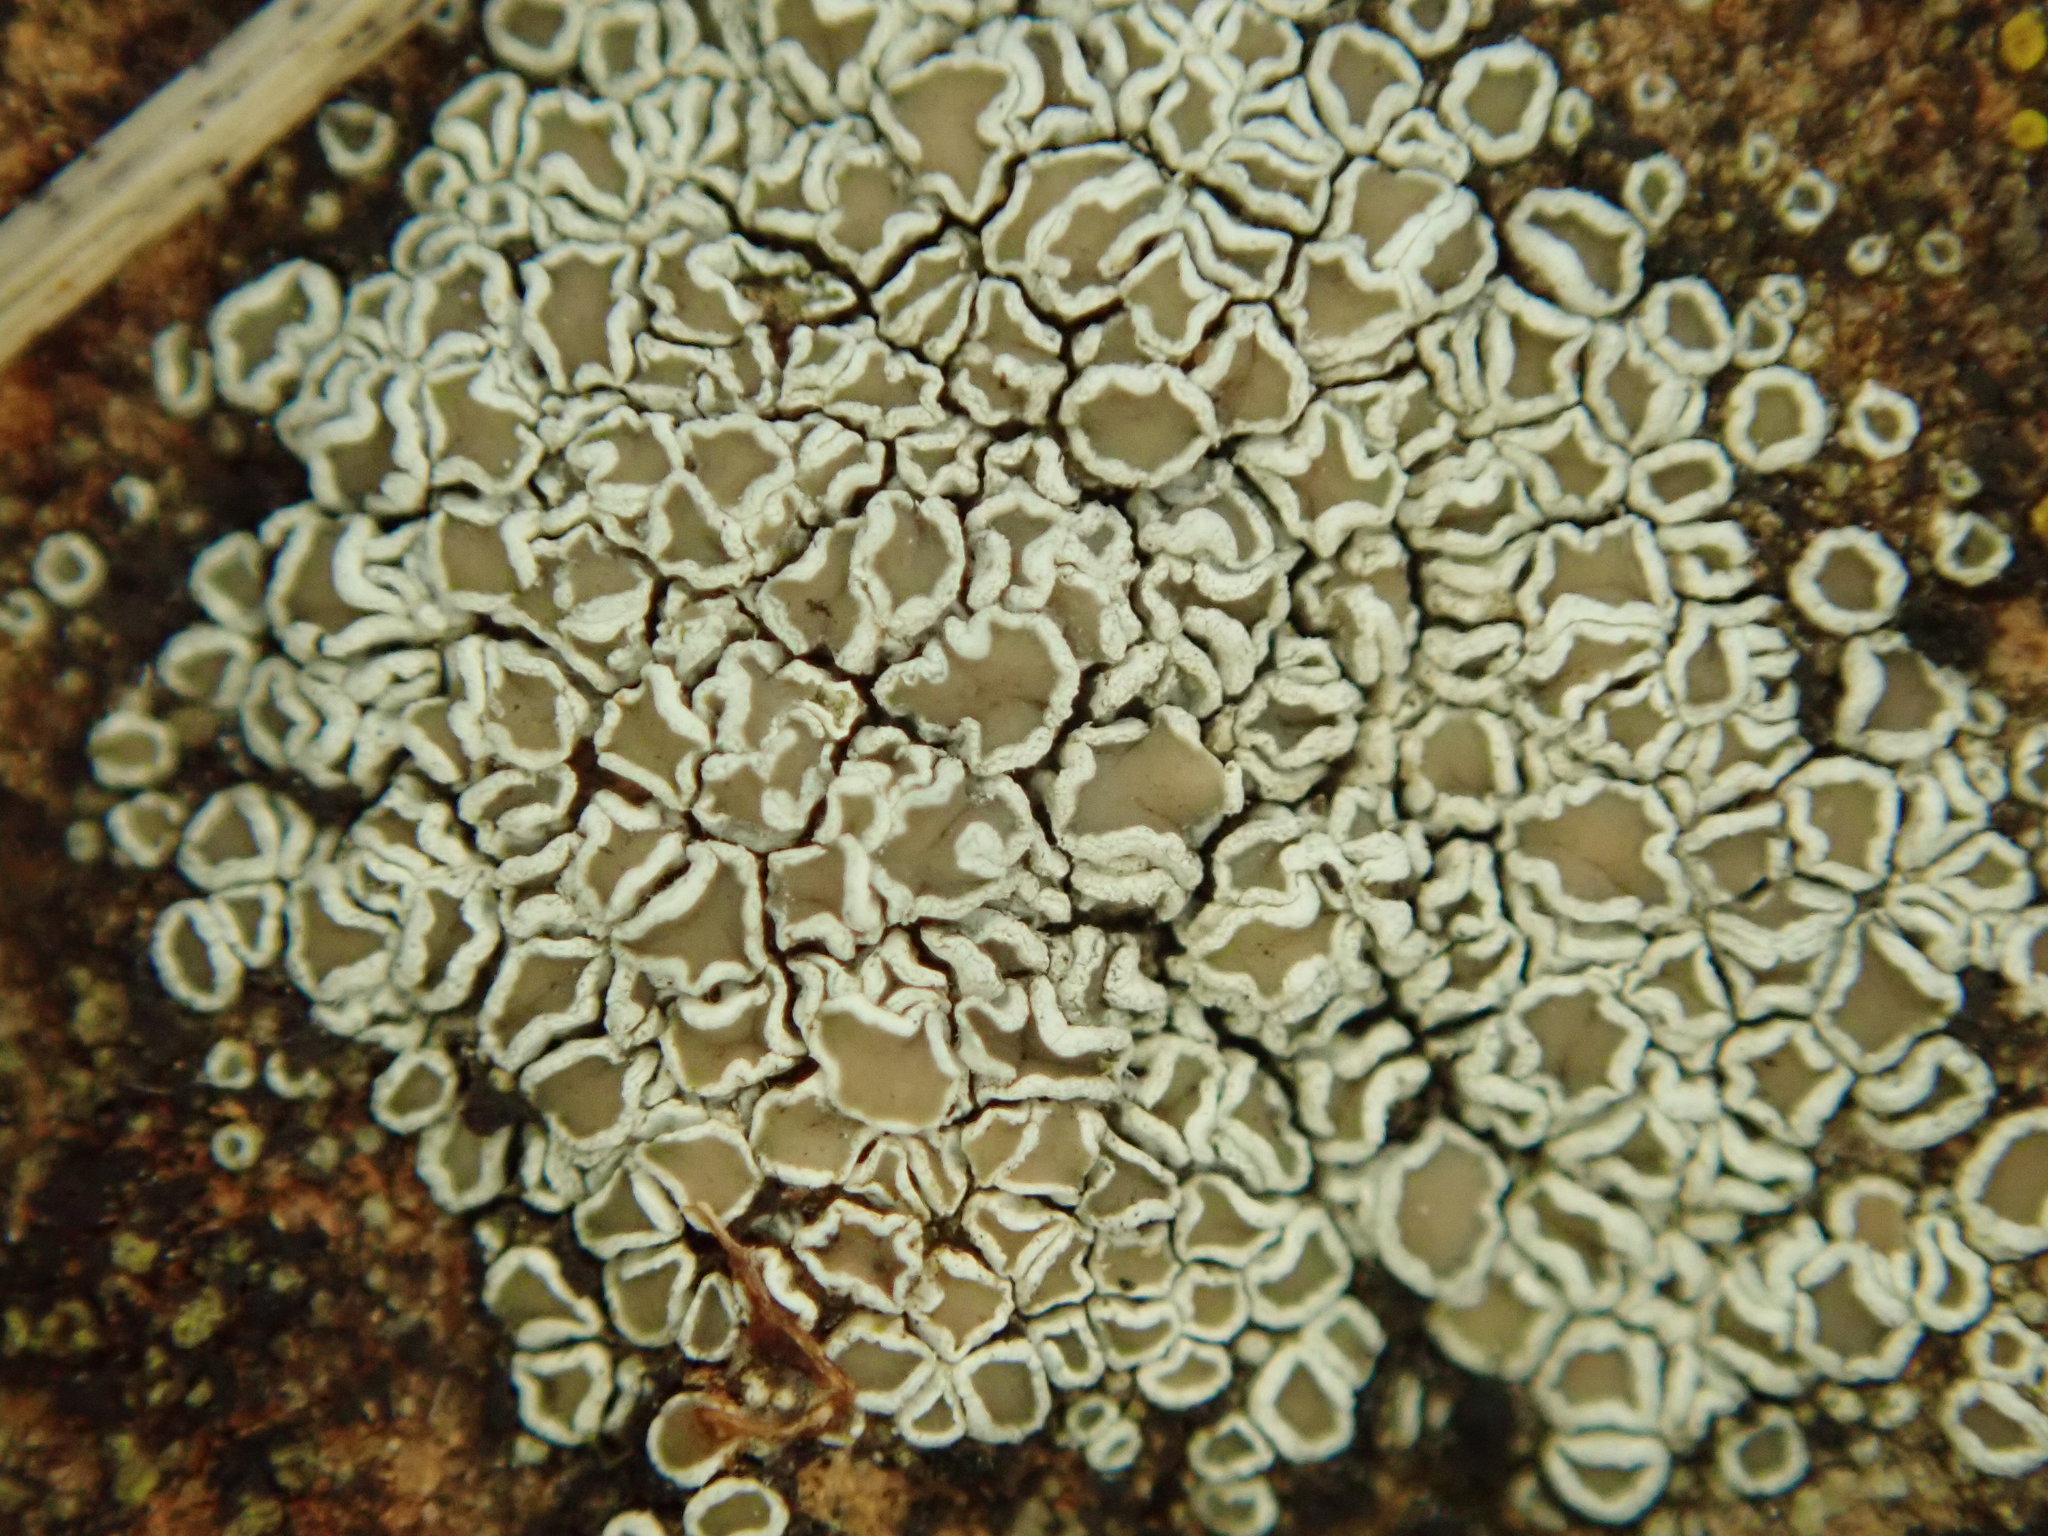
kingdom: Fungi
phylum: Ascomycota
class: Lecanoromycetes
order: Lecanorales
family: Lecanoraceae
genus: Polyozosia
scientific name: Polyozosia dispersa
